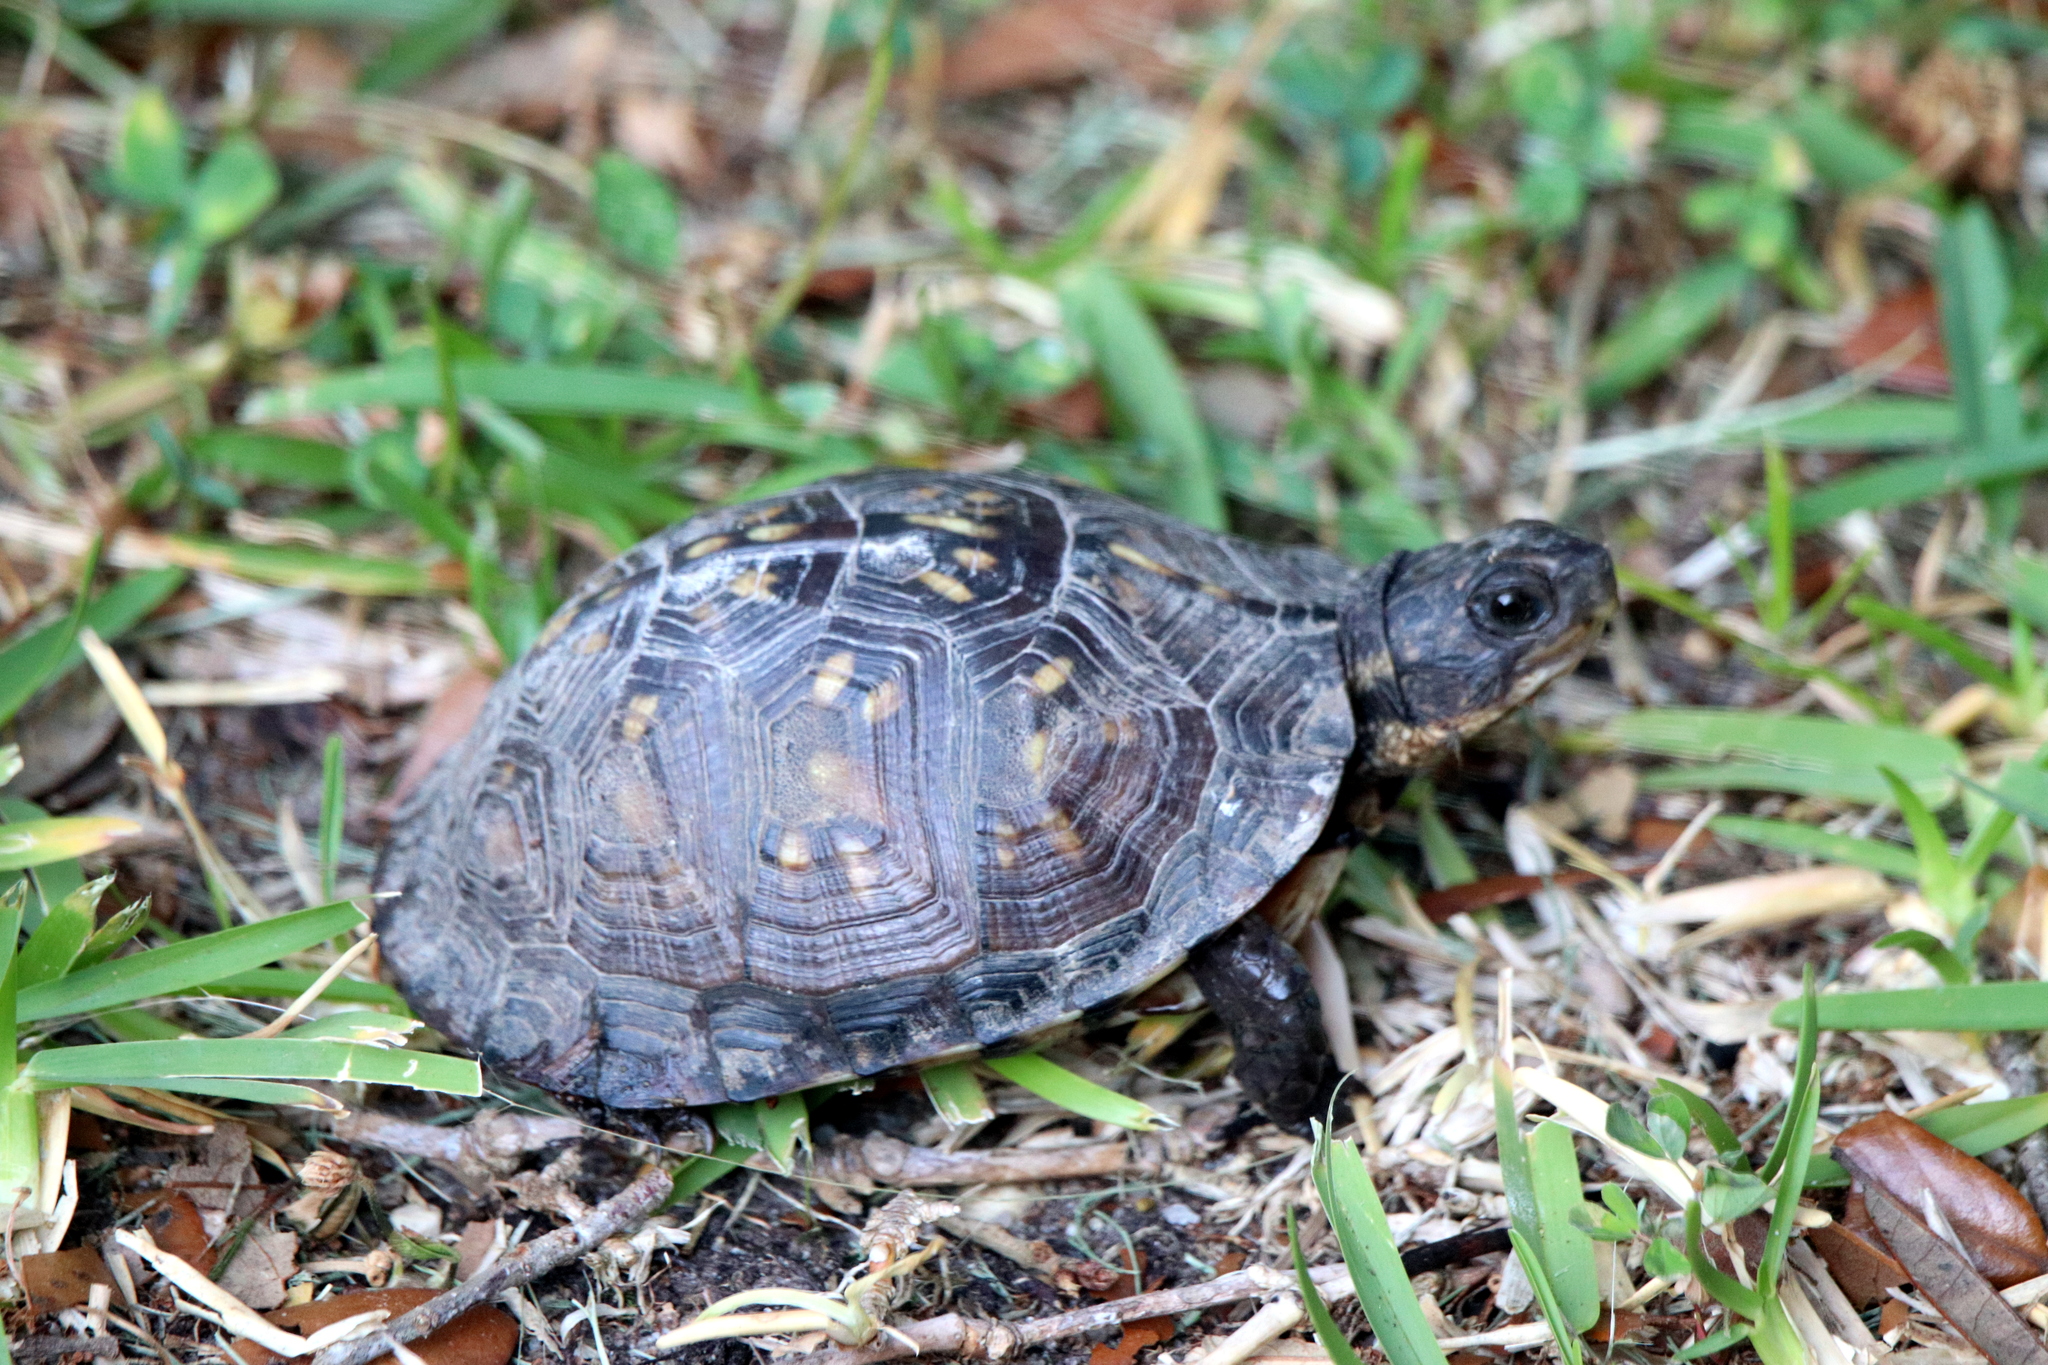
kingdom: Animalia
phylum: Chordata
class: Testudines
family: Emydidae
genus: Terrapene
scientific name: Terrapene carolina
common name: Common box turtle
